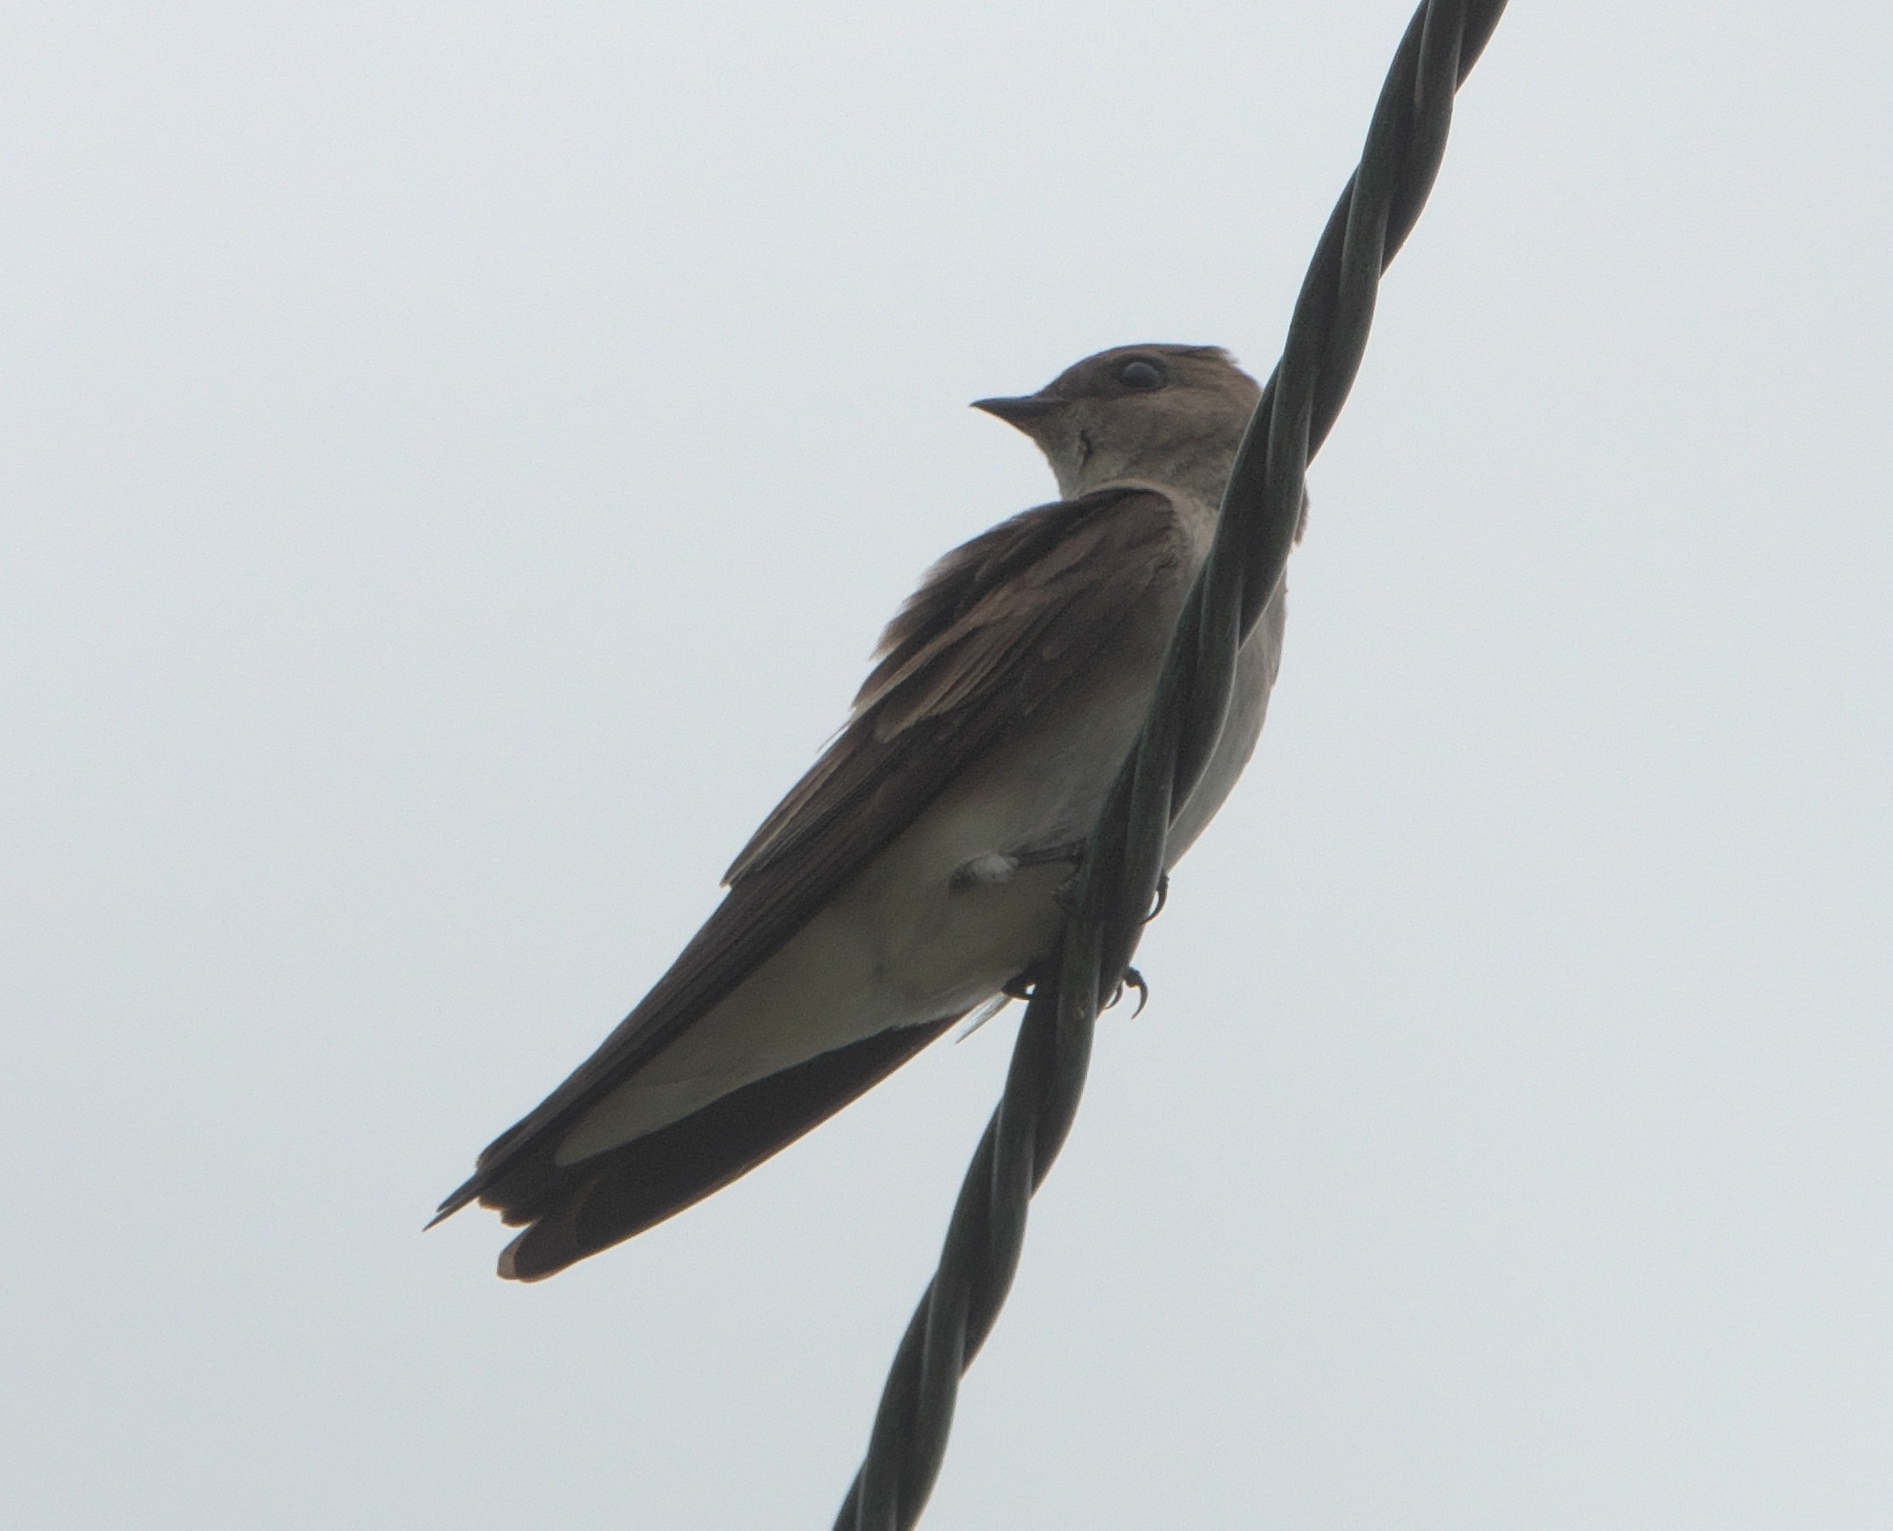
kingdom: Animalia
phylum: Chordata
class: Aves
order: Passeriformes
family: Hirundinidae
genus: Stelgidopteryx
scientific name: Stelgidopteryx serripennis
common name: Northern rough-winged swallow
